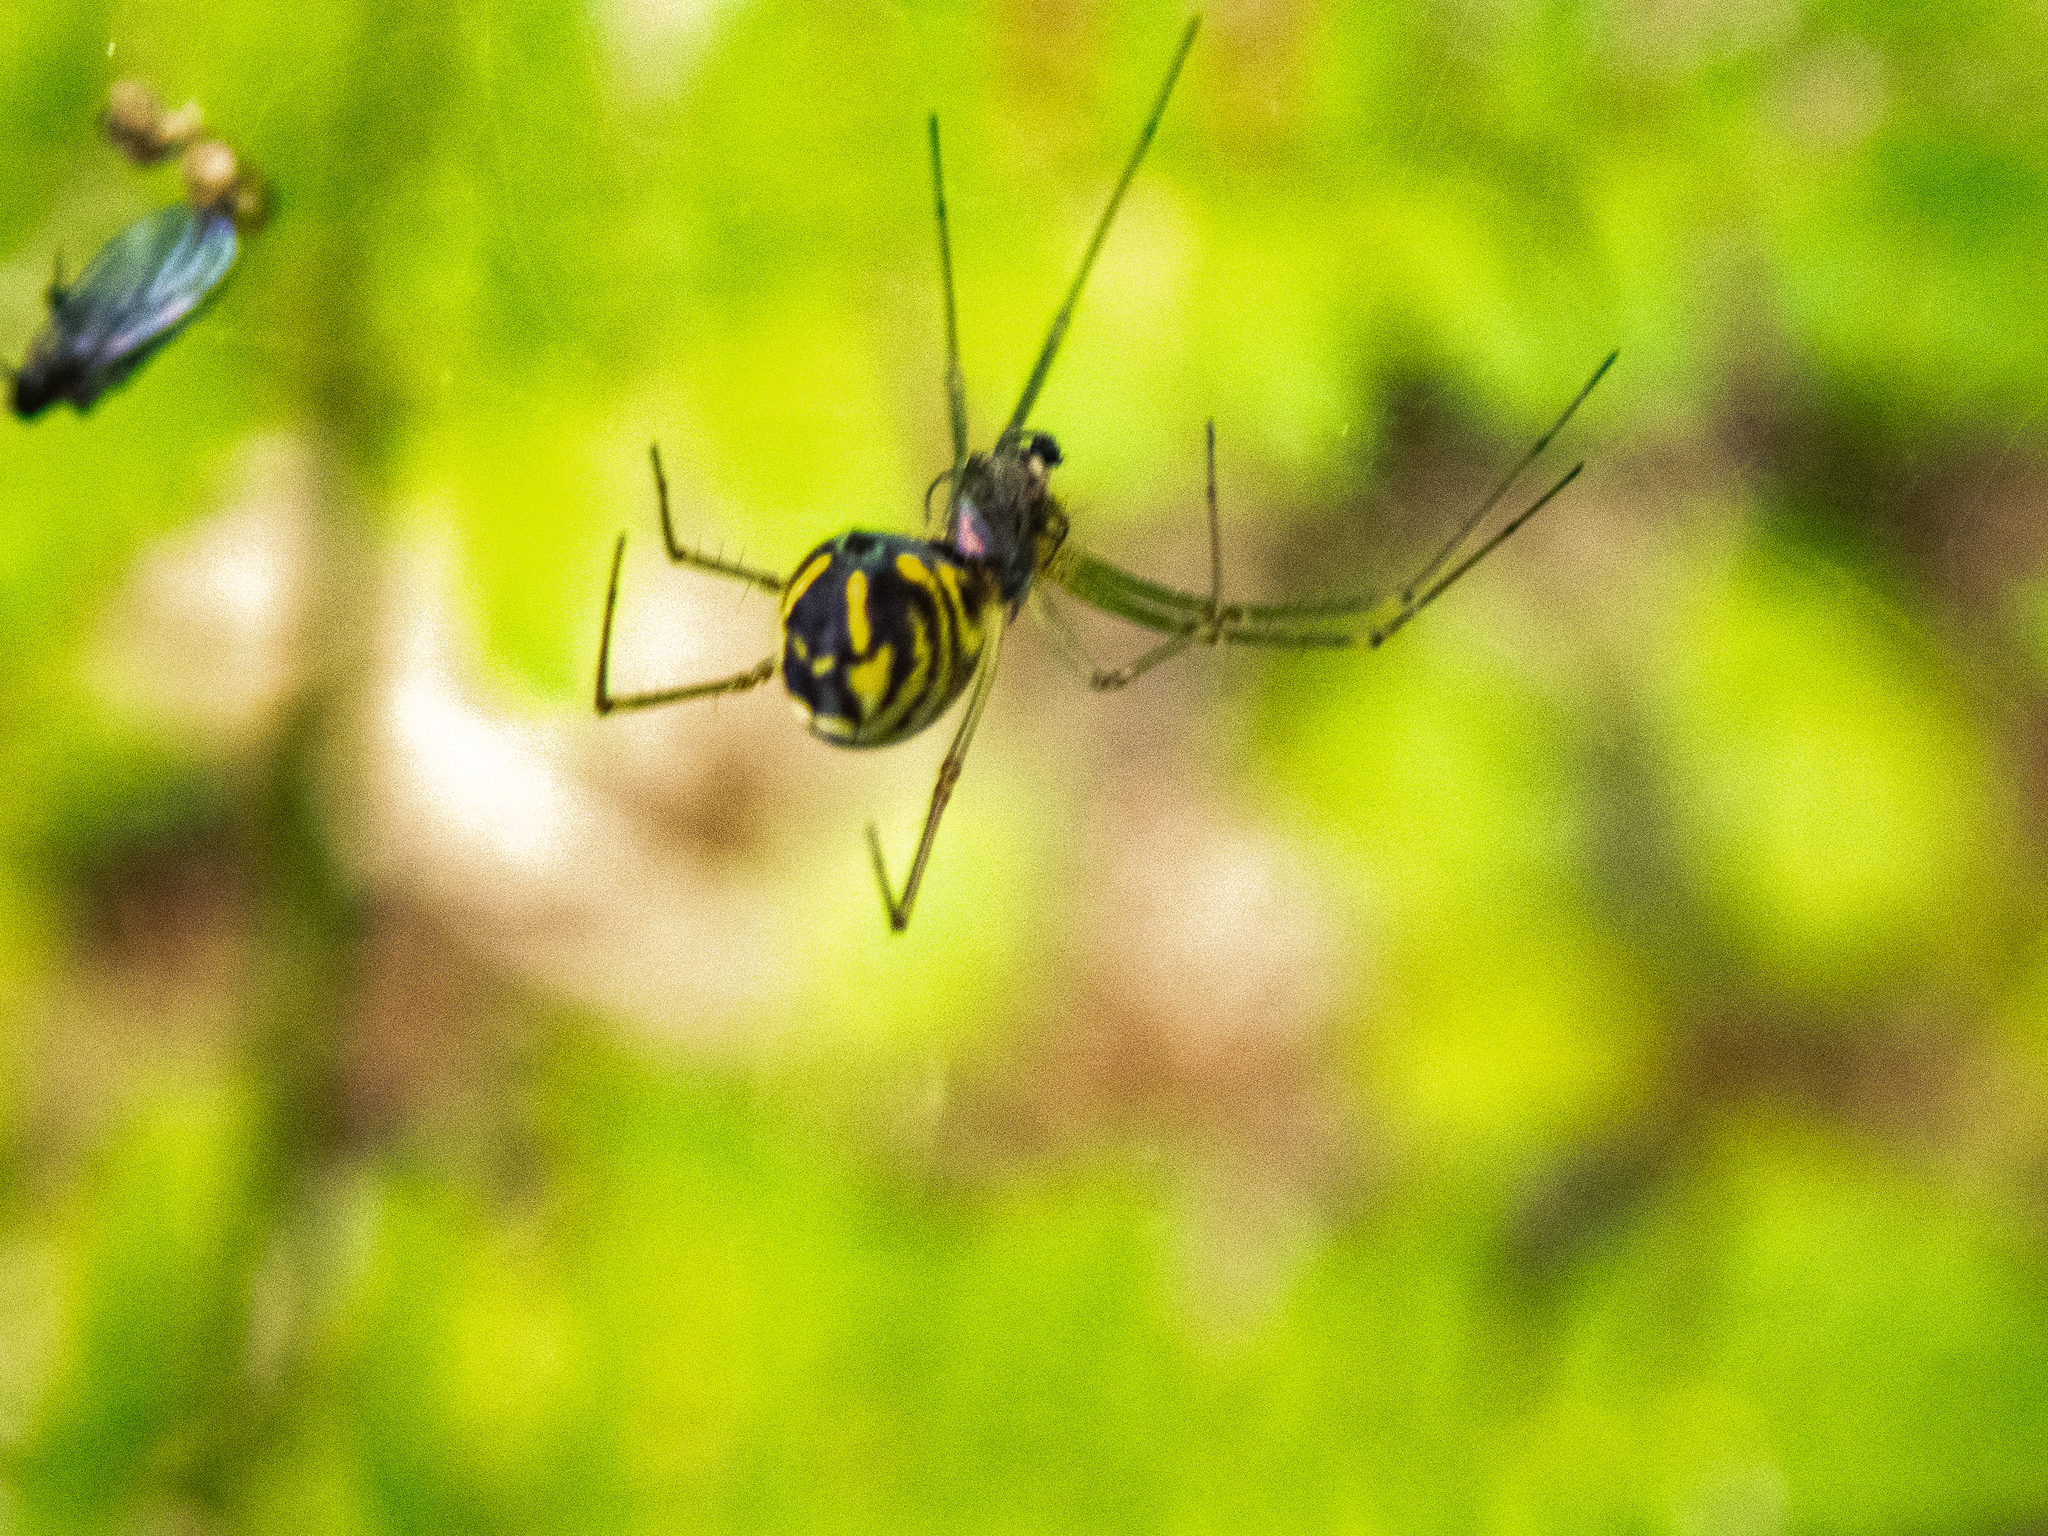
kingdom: Animalia
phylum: Arthropoda
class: Arachnida
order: Araneae
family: Linyphiidae
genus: Neriene
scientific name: Neriene radiata
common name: Filmy dome spider
